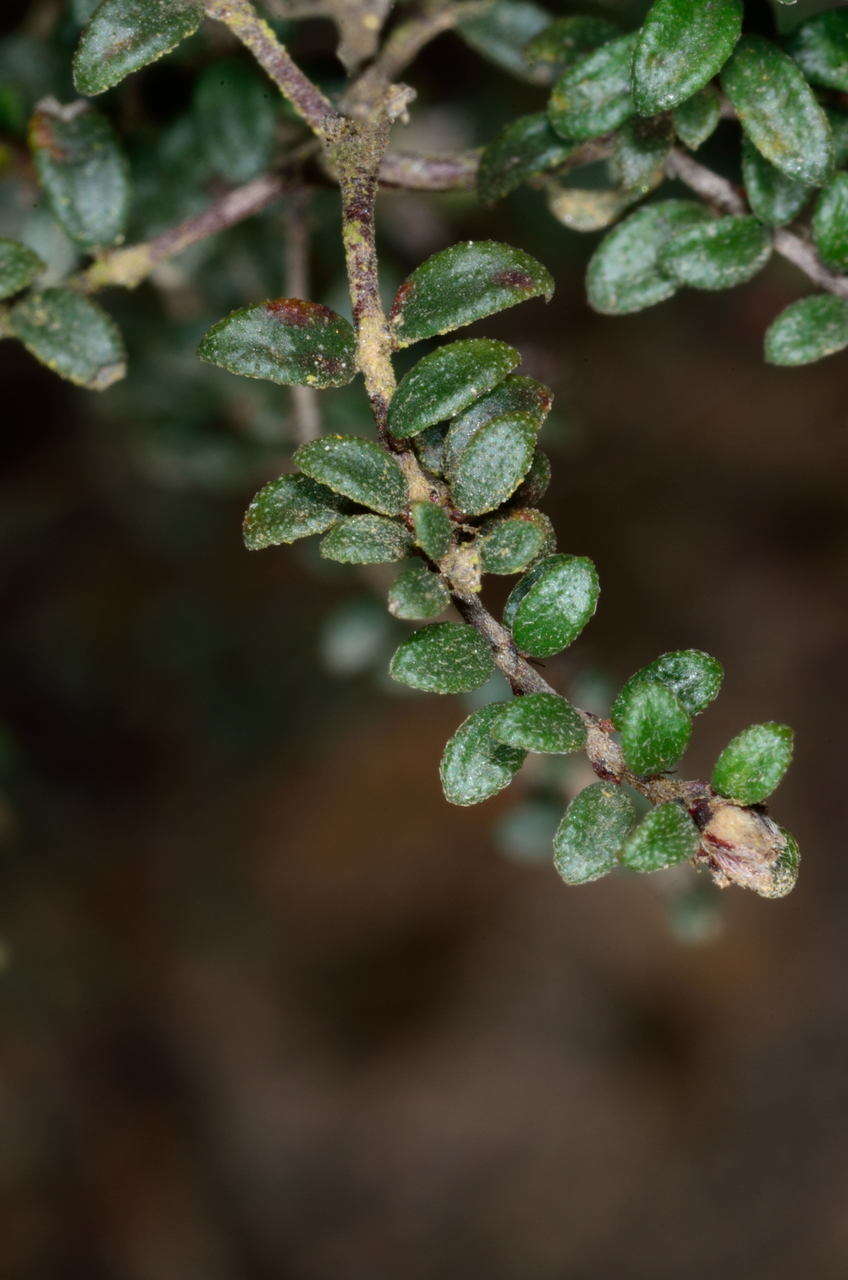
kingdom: Plantae
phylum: Tracheophyta
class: Magnoliopsida
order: Fabales
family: Fabaceae
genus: Pultenaea
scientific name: Pultenaea gunnii
